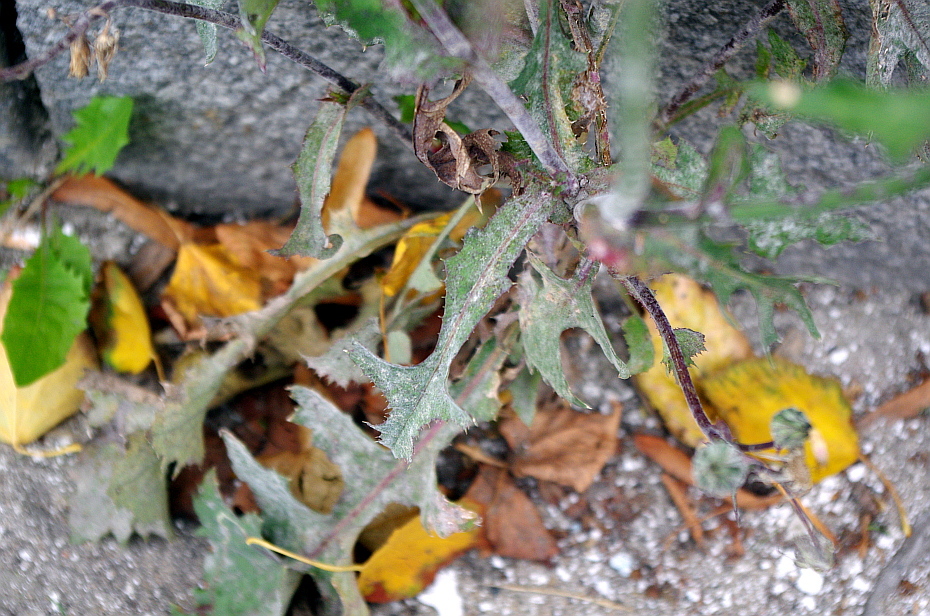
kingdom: Plantae
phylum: Tracheophyta
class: Magnoliopsida
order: Asterales
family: Asteraceae
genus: Sonchus
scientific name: Sonchus oleraceus
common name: Common sowthistle
